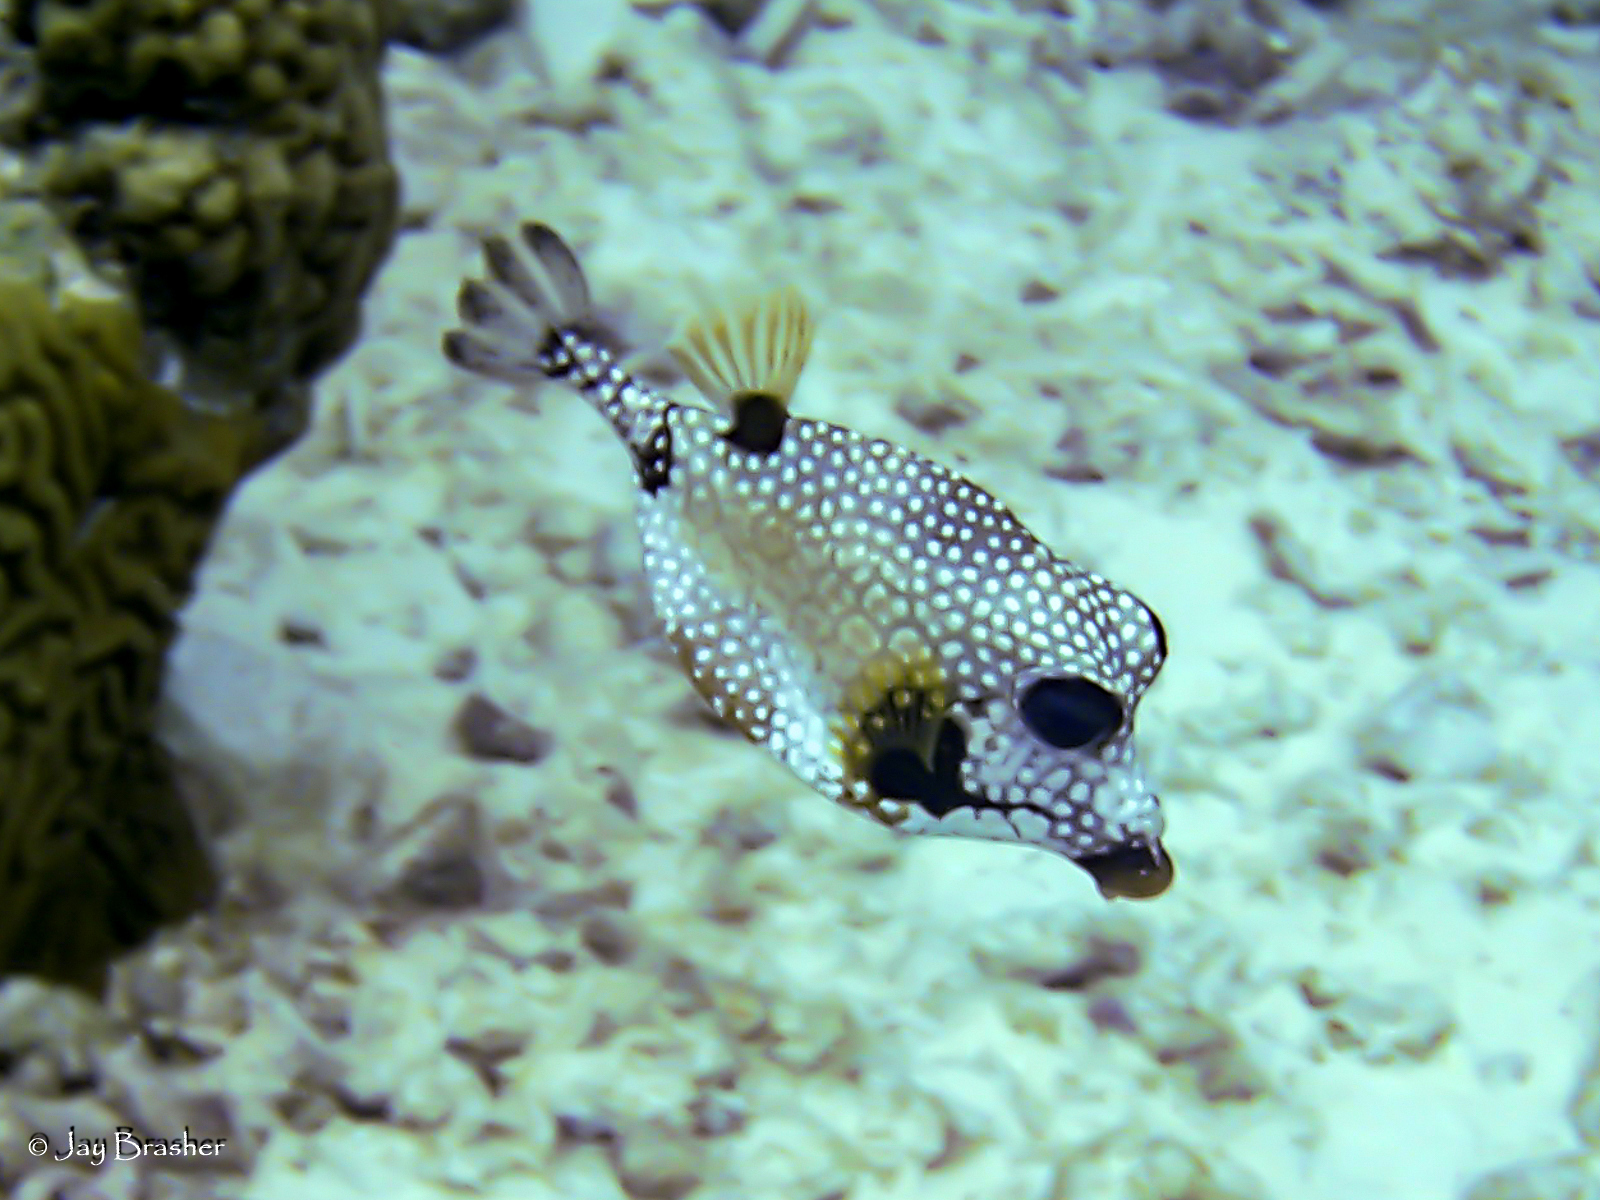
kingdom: Animalia
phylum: Chordata
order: Tetraodontiformes
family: Ostraciidae
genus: Lactophrys
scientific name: Lactophrys triqueter
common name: Smooth trunkfish
